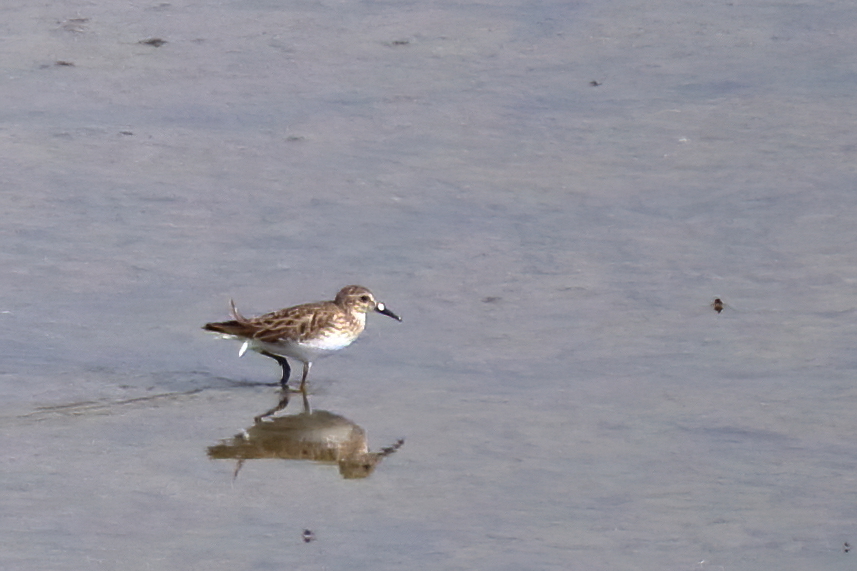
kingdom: Animalia
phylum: Chordata
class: Aves
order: Charadriiformes
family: Scolopacidae
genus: Calidris
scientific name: Calidris minutilla
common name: Least sandpiper
